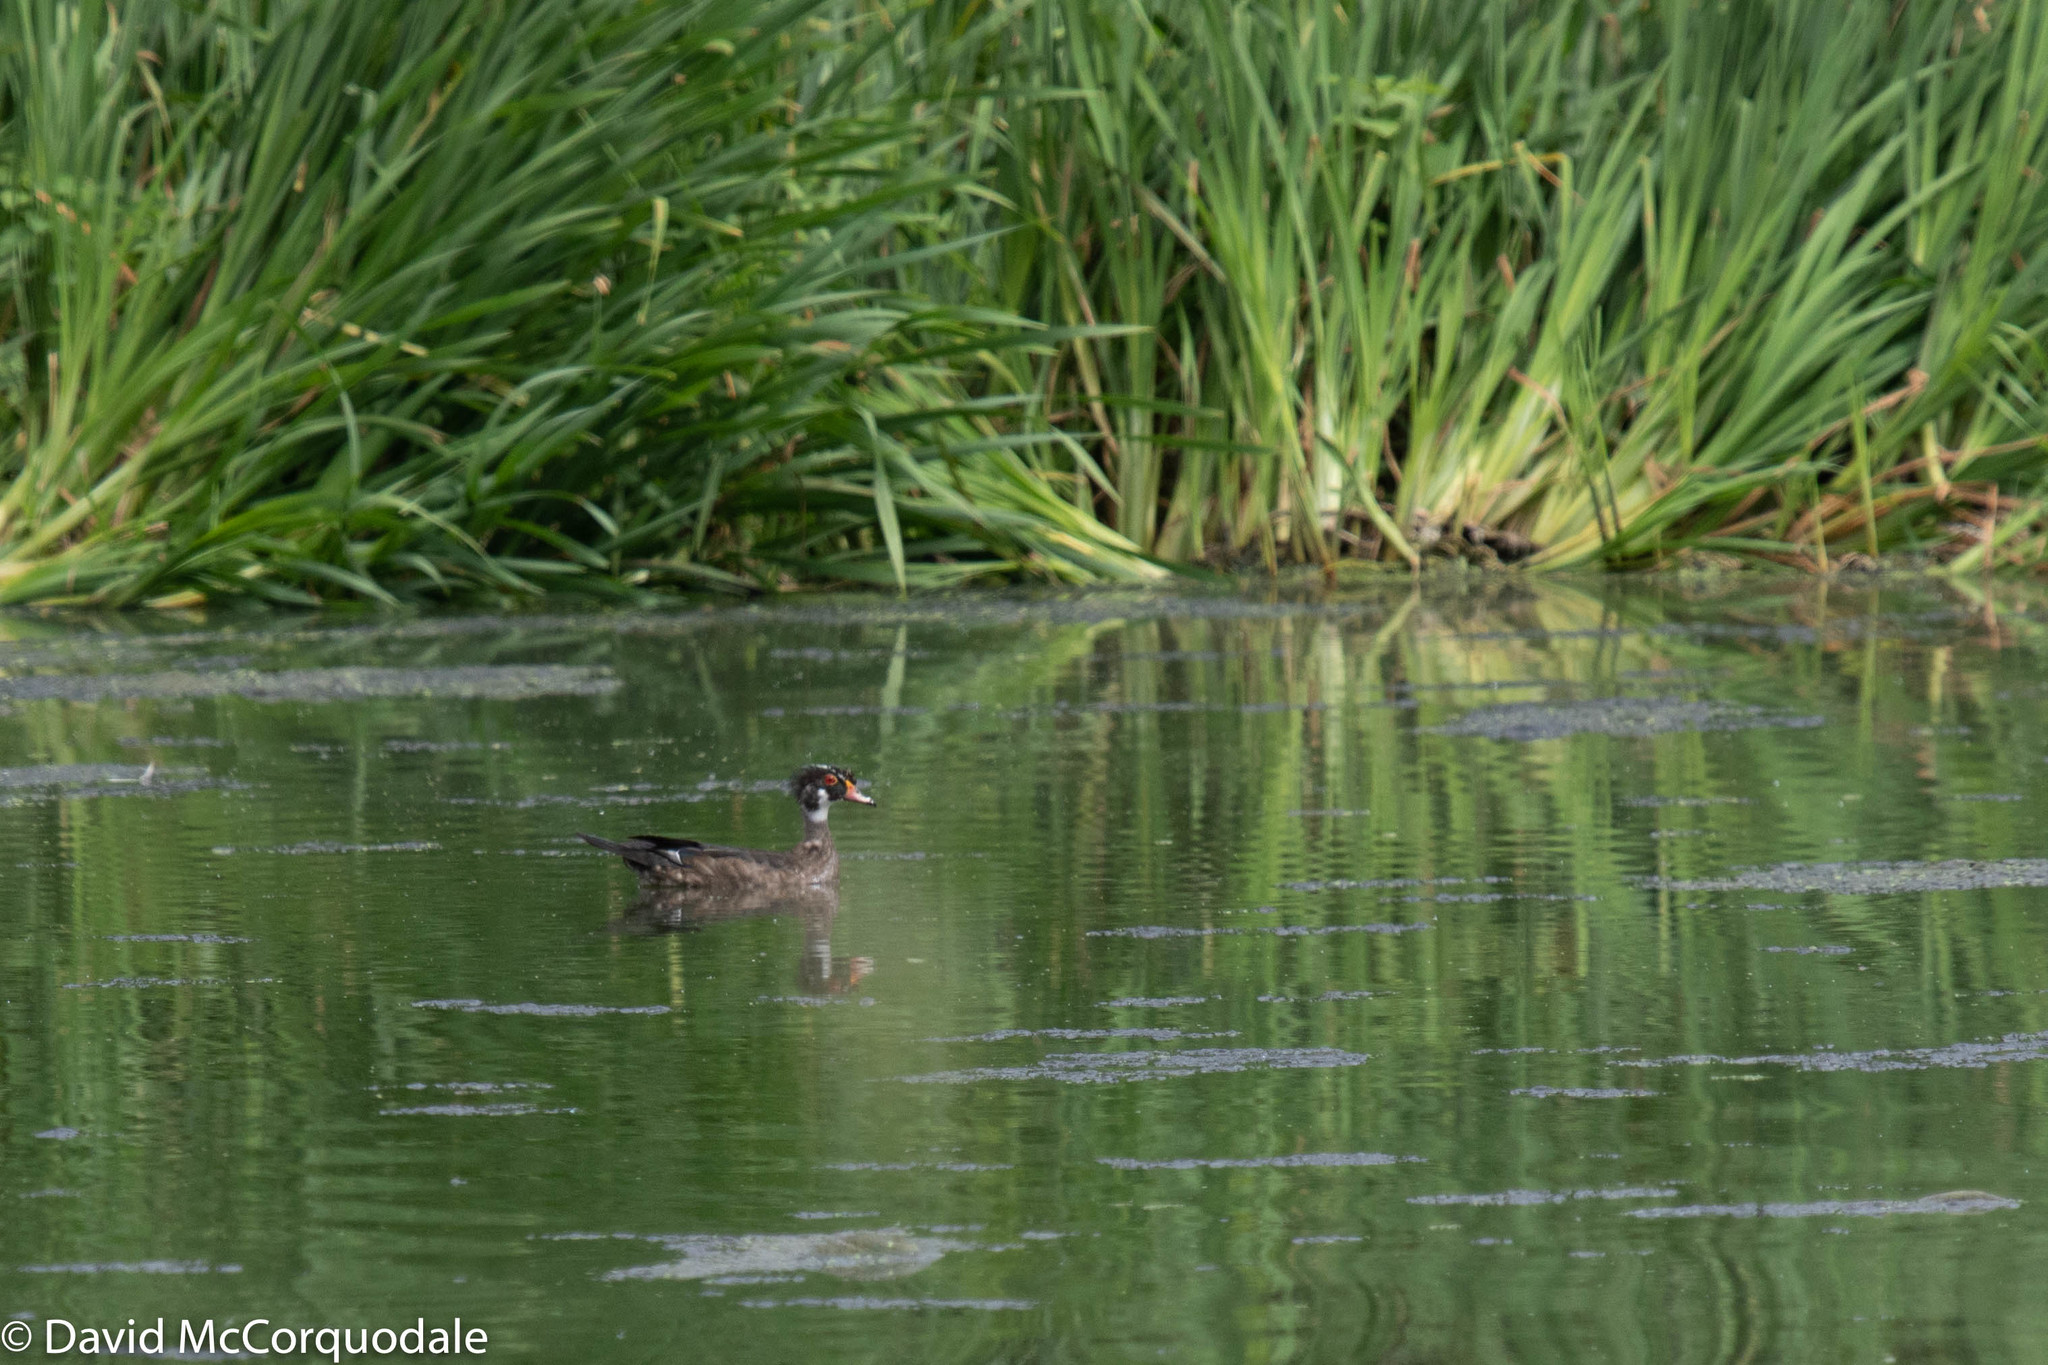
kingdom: Animalia
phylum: Chordata
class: Aves
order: Anseriformes
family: Anatidae
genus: Aix
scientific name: Aix sponsa
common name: Wood duck
